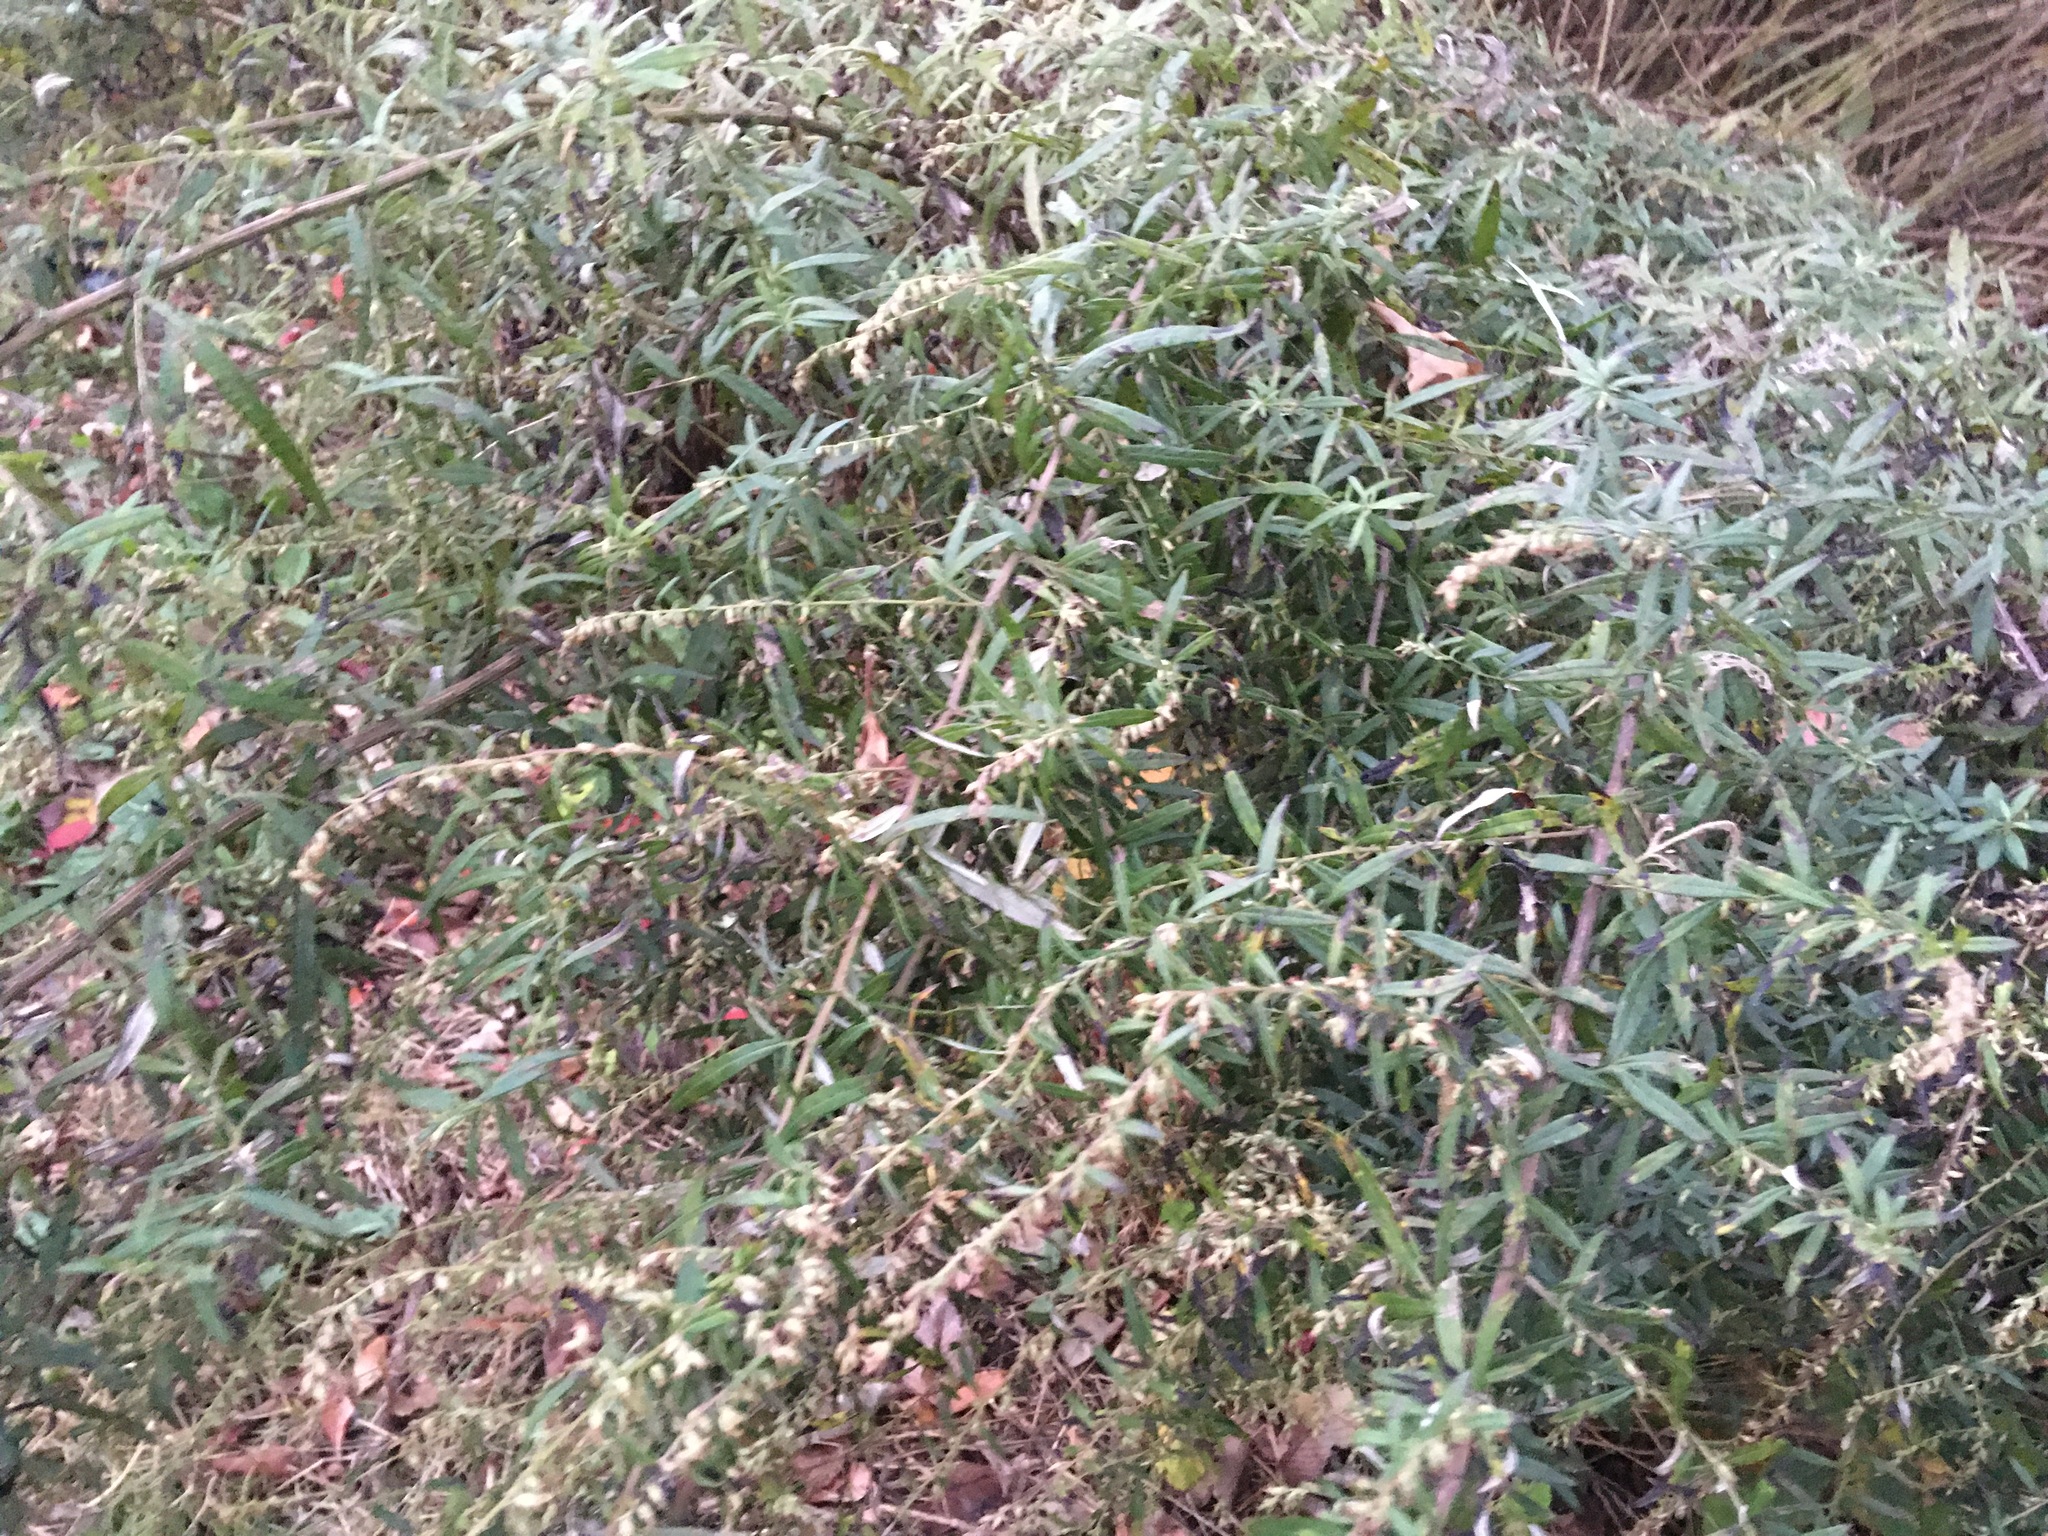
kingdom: Plantae
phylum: Tracheophyta
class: Magnoliopsida
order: Asterales
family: Asteraceae
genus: Artemisia
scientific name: Artemisia vulgaris
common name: Mugwort
